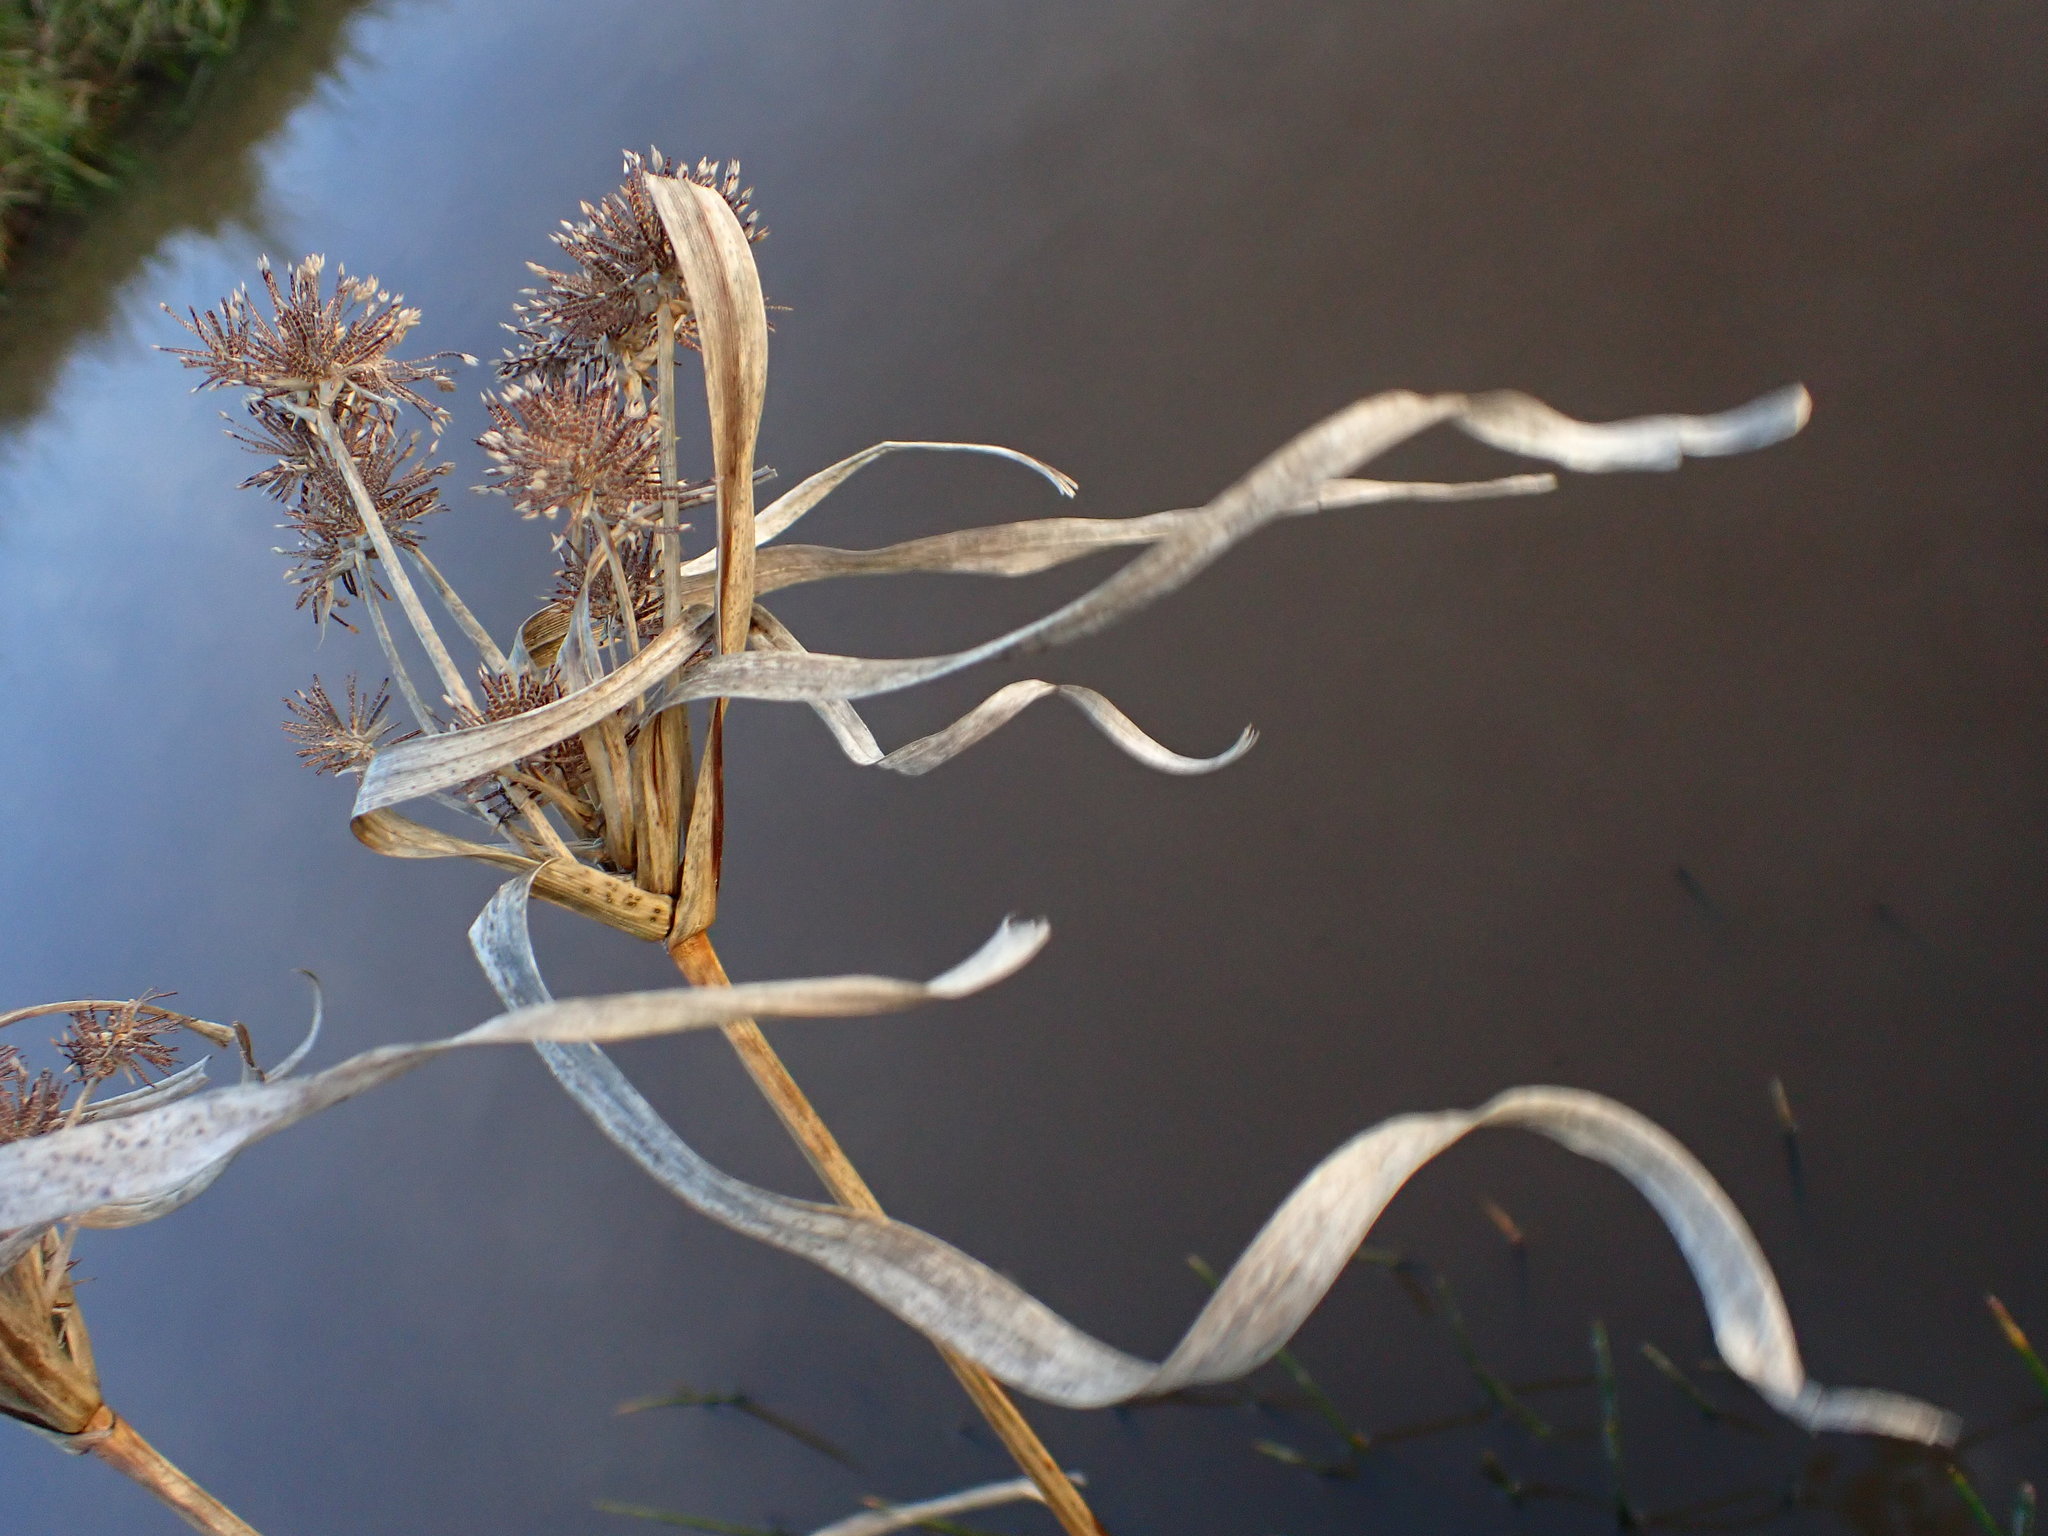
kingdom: Plantae
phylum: Tracheophyta
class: Liliopsida
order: Poales
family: Cyperaceae
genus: Cyperus
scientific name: Cyperus eragrostis
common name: Tall flatsedge
